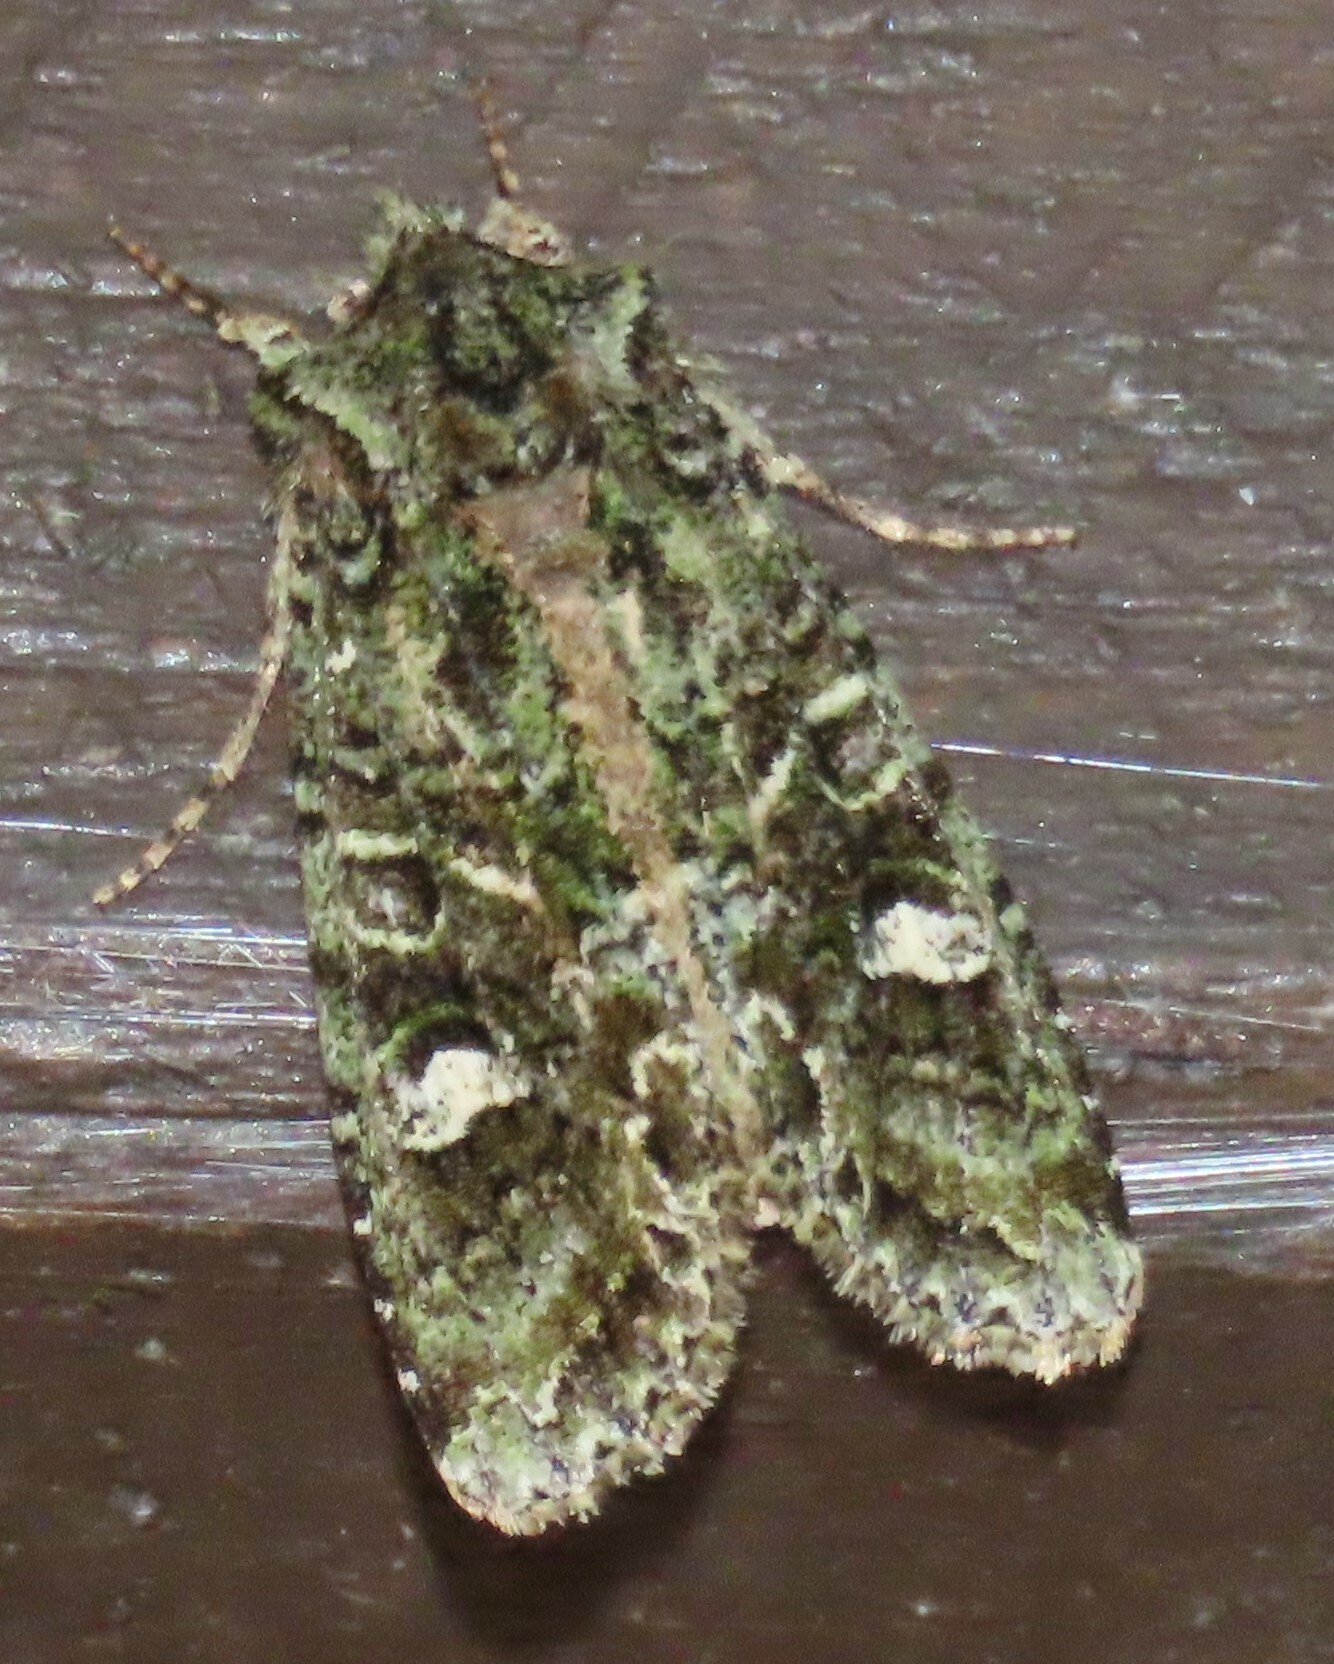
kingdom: Animalia
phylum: Arthropoda
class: Insecta
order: Lepidoptera
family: Noctuidae
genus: Ichneutica
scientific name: Ichneutica
